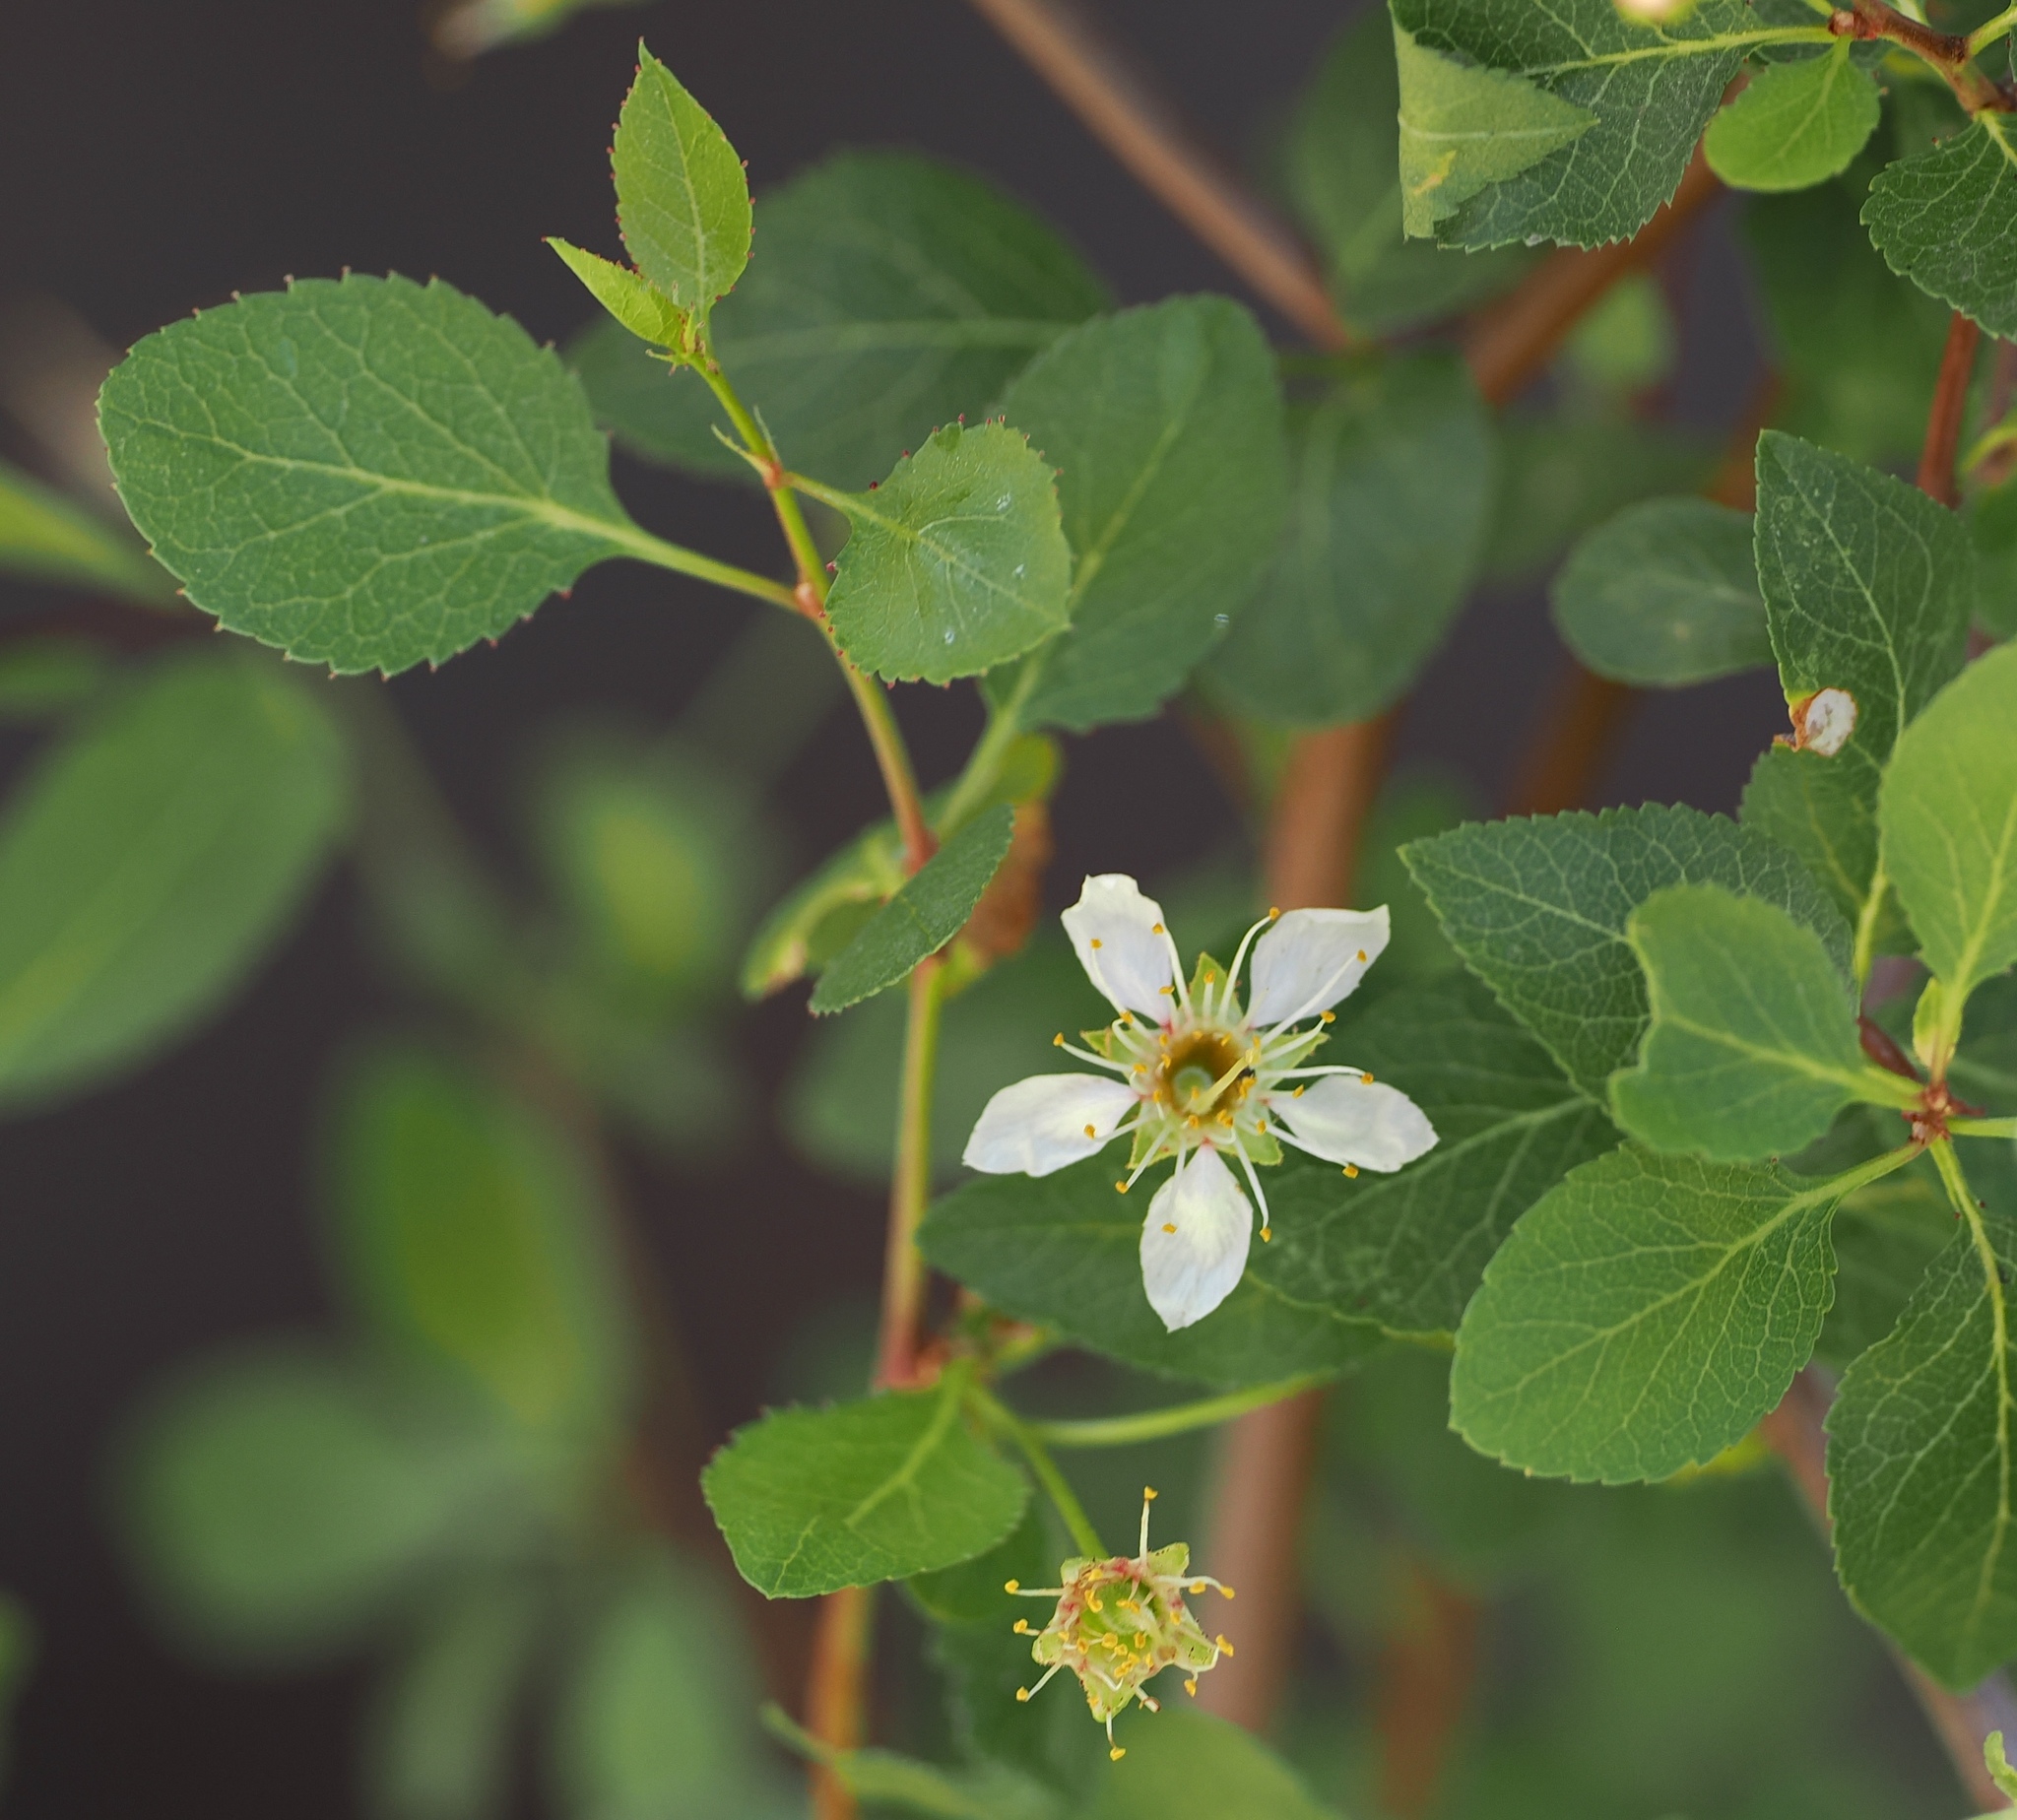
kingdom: Plantae
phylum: Tracheophyta
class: Magnoliopsida
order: Rosales
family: Rosaceae
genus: Prunus
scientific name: Prunus fremontii
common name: Desert apricot
